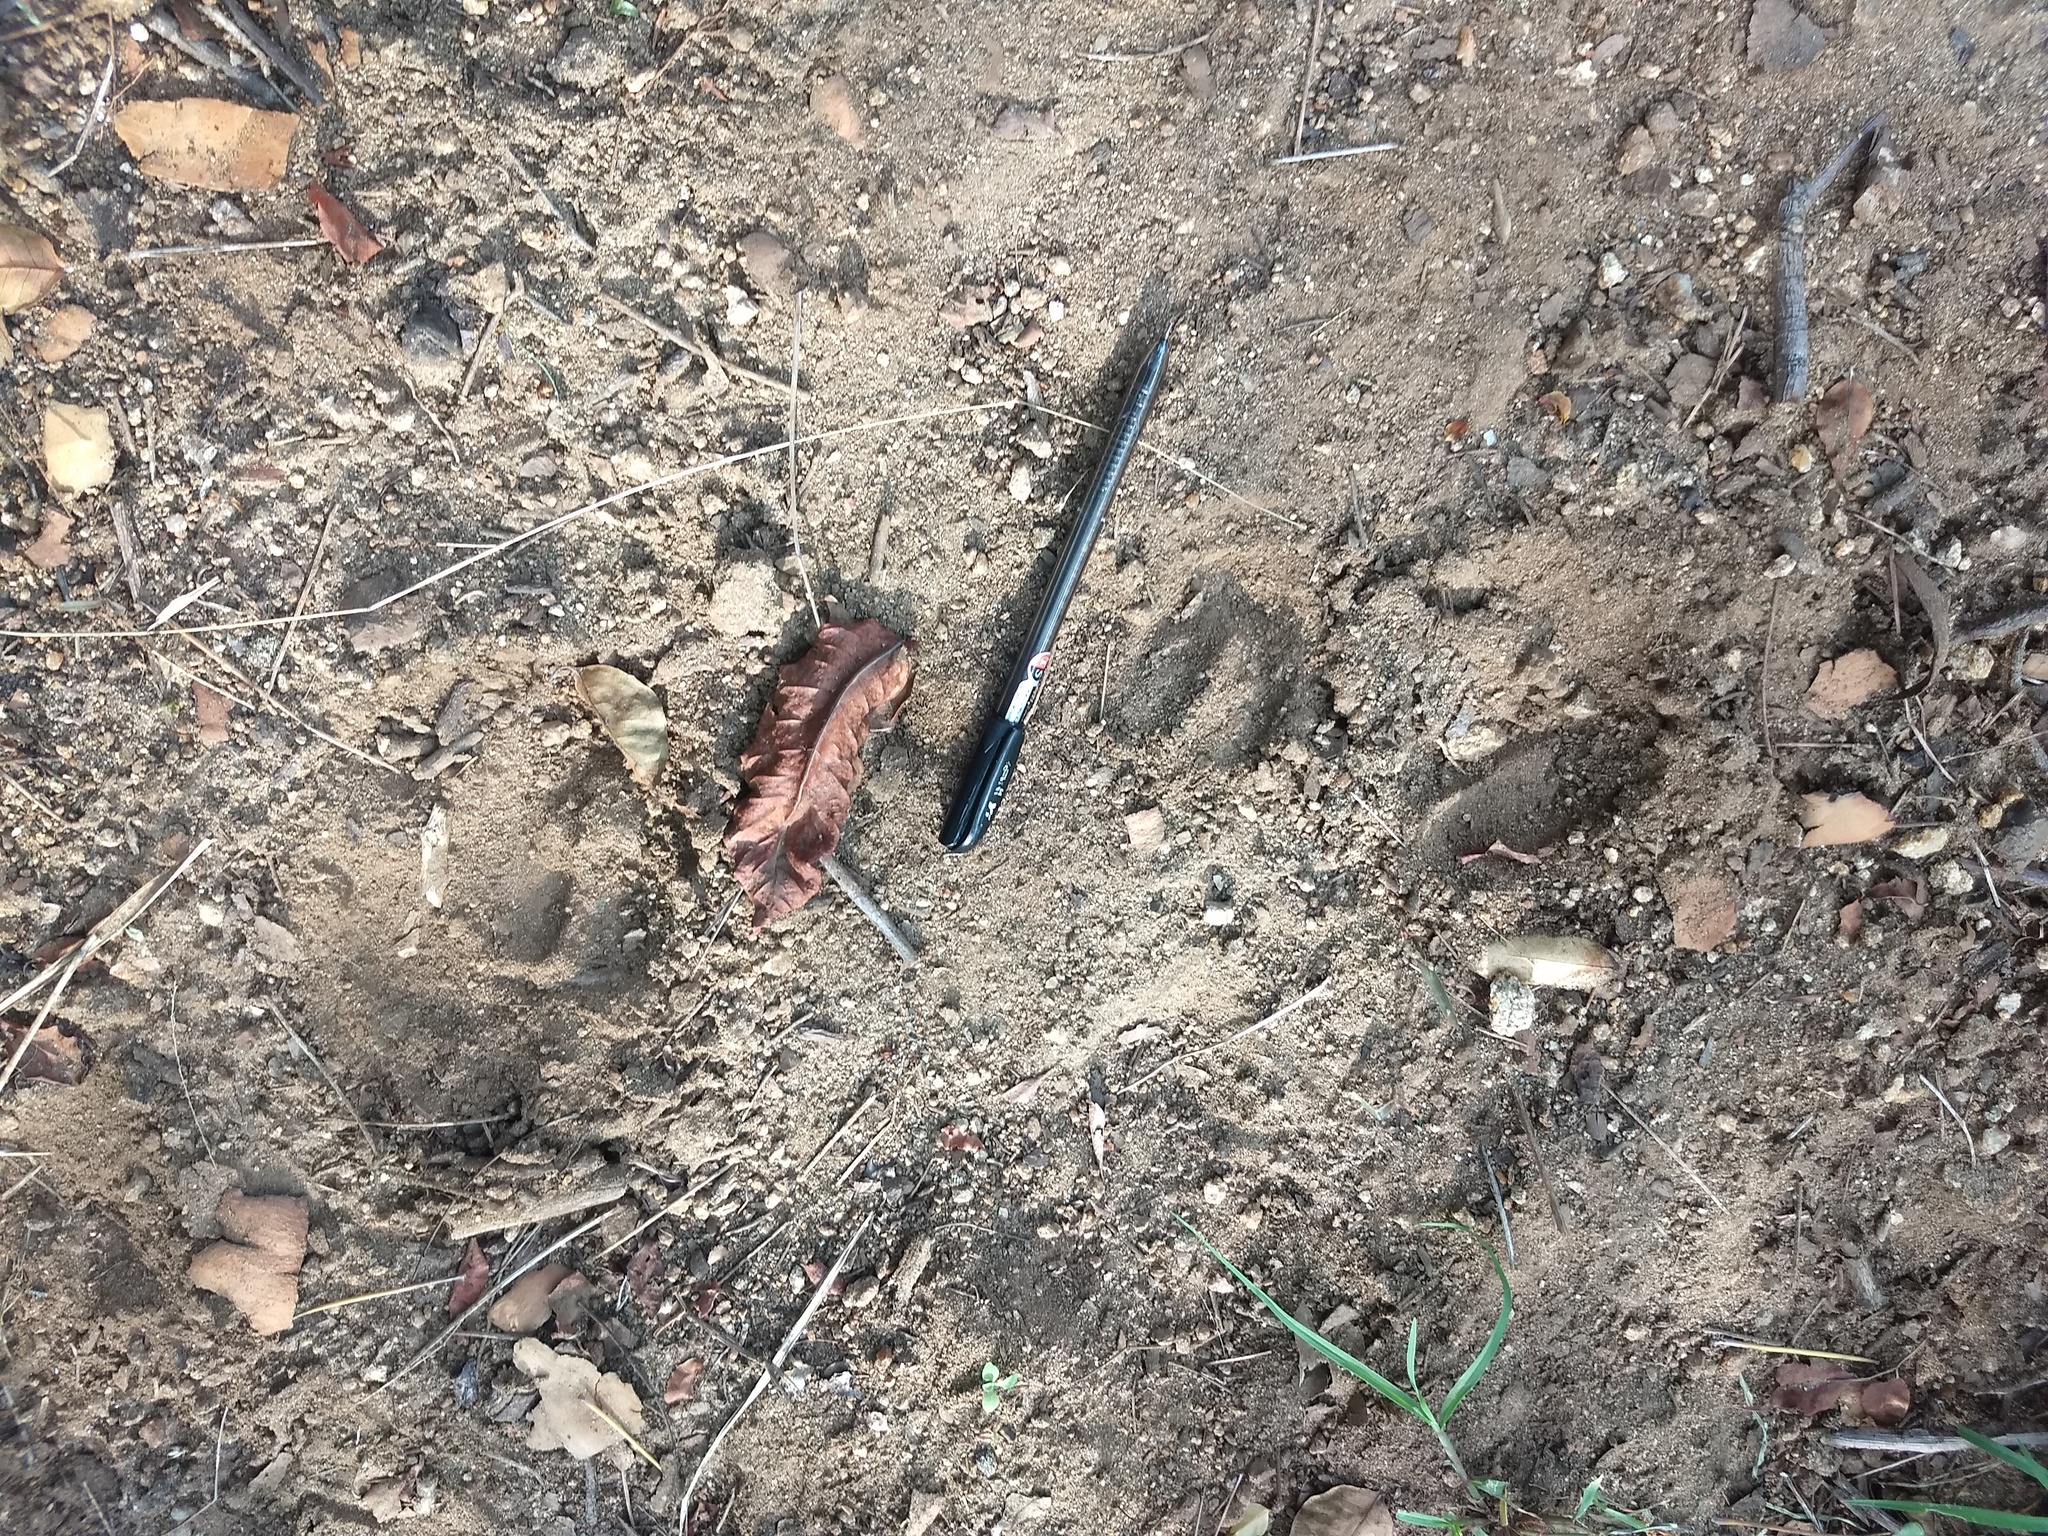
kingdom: Animalia
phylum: Chordata
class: Mammalia
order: Artiodactyla
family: Cervidae
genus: Rusa
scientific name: Rusa unicolor
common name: Sambar
